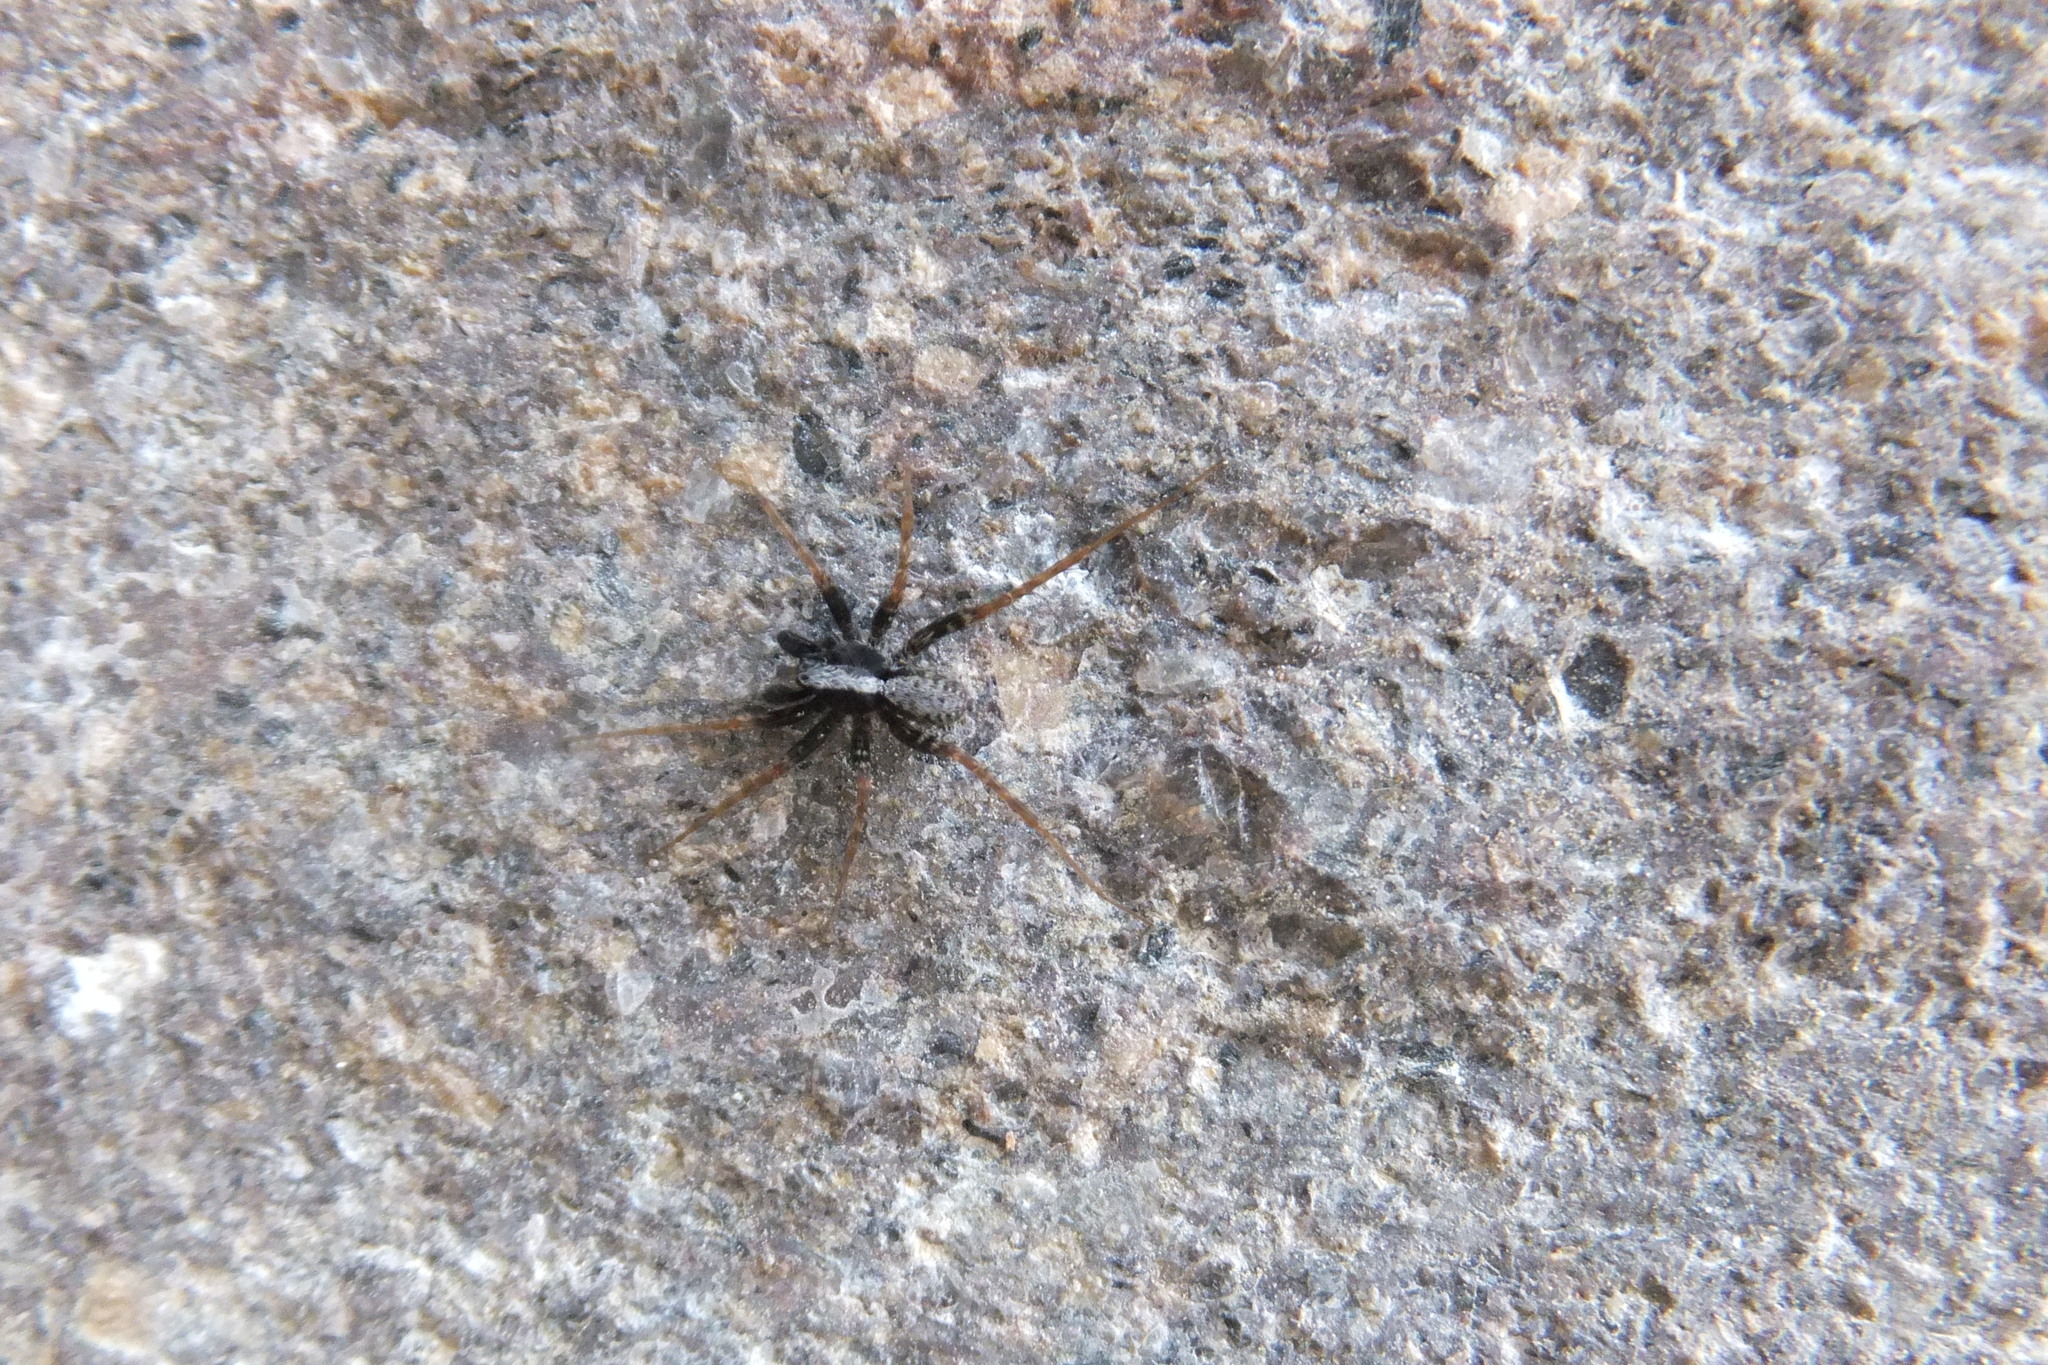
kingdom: Animalia
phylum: Arthropoda
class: Arachnida
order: Araneae
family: Lycosidae
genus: Pardosa
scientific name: Pardosa
